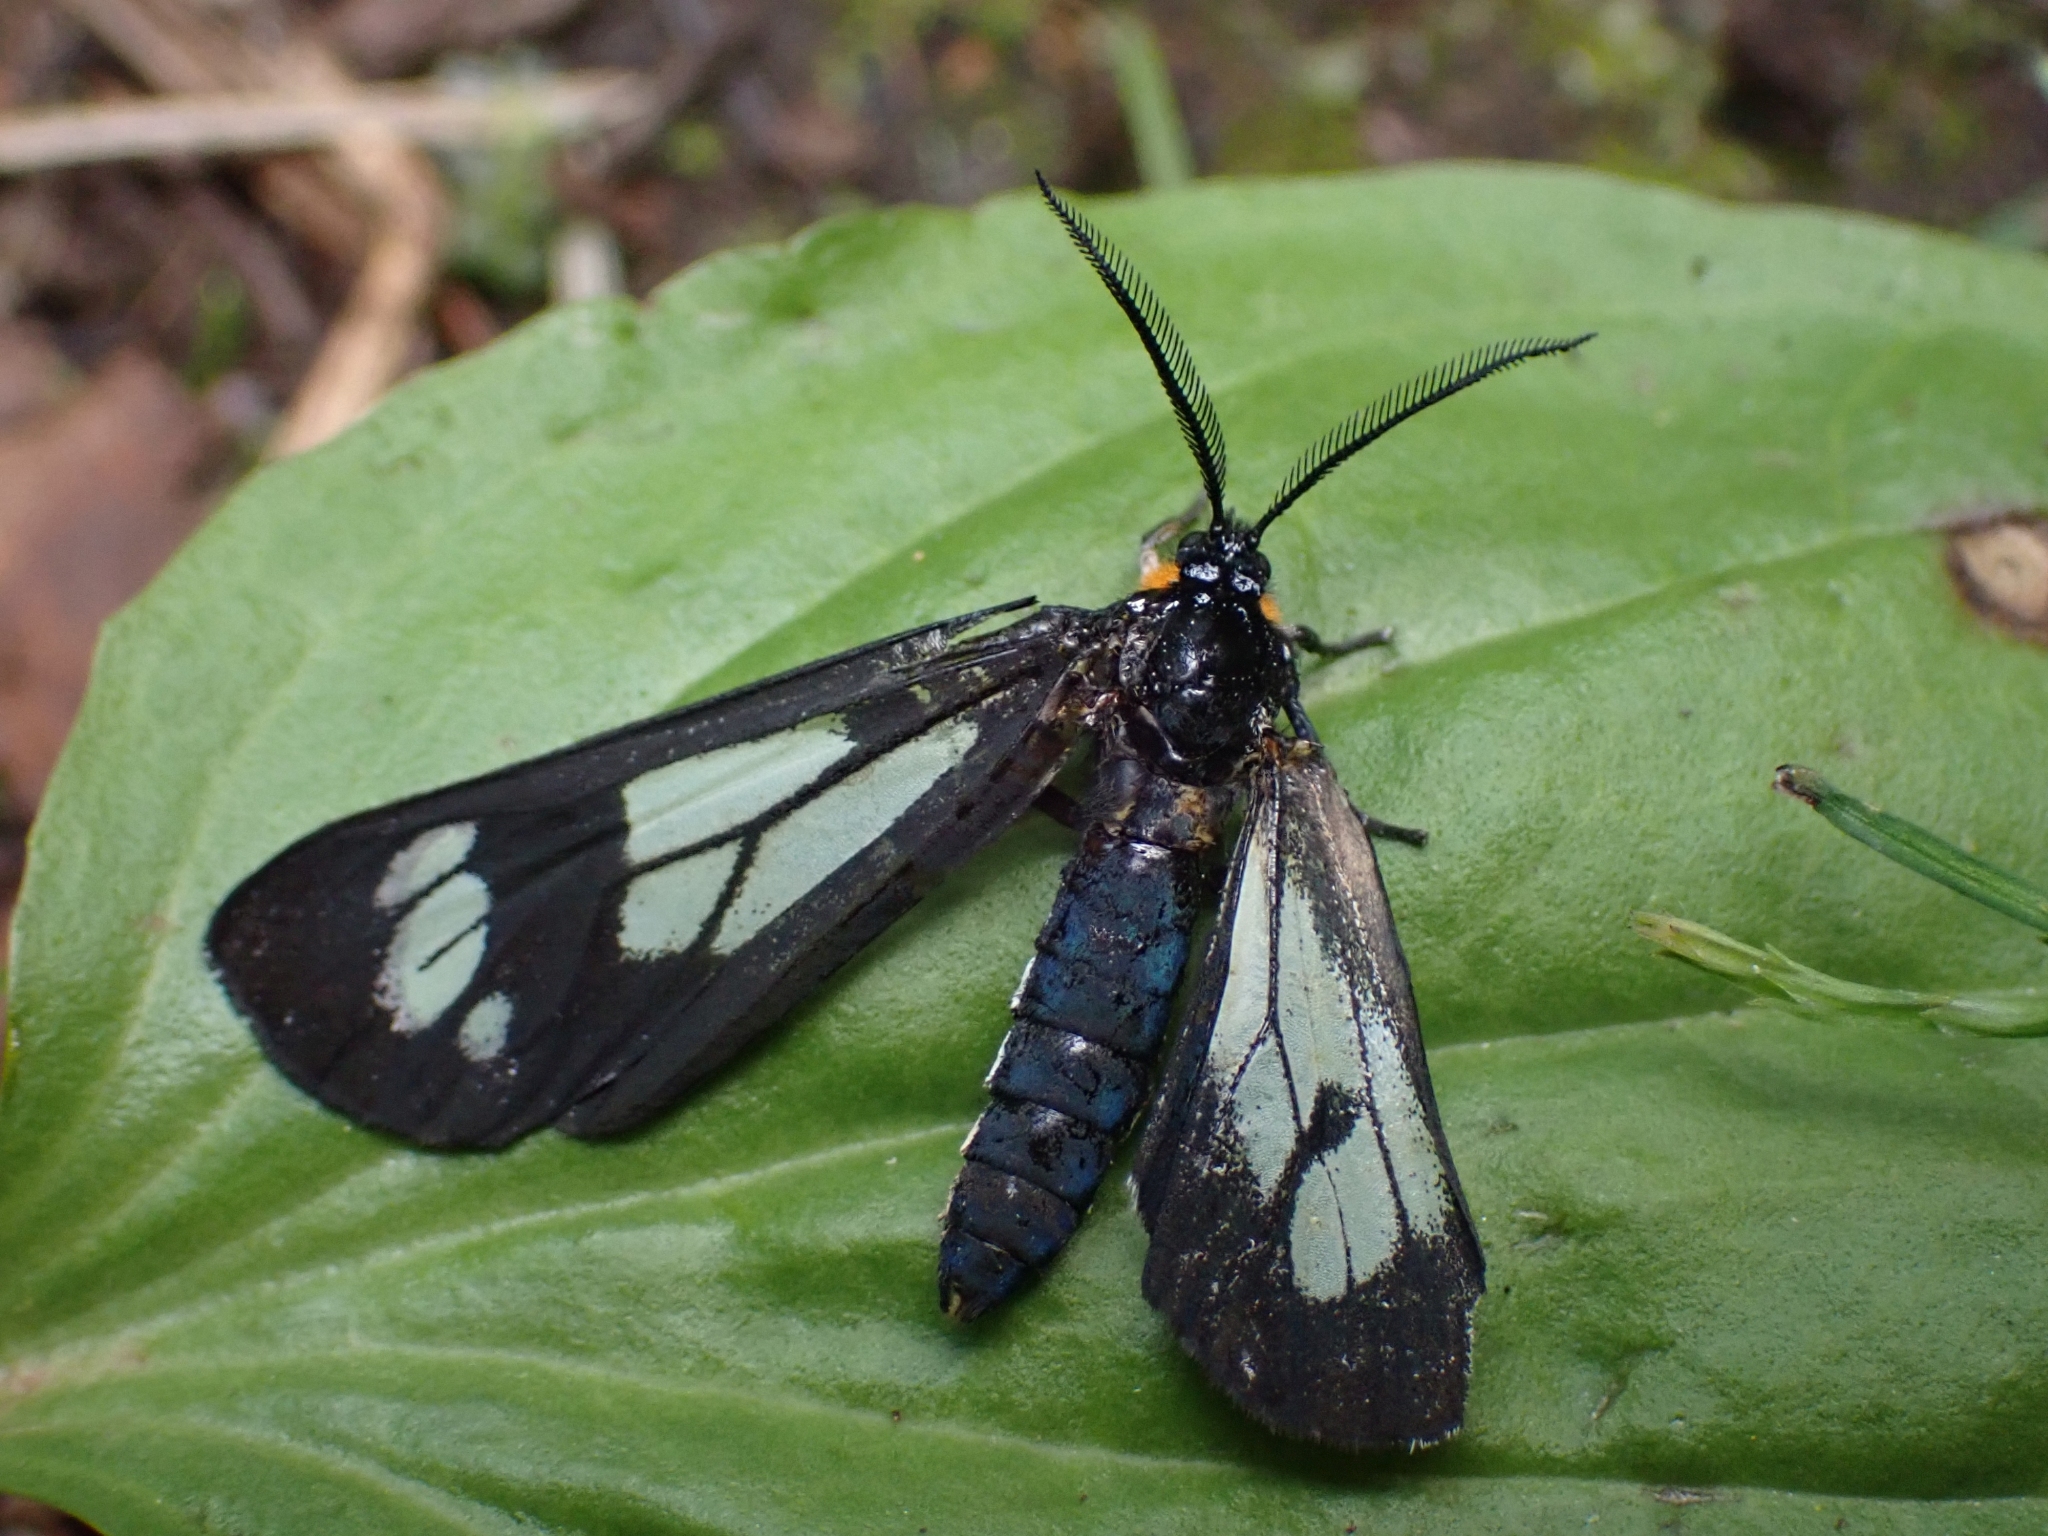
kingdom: Animalia
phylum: Arthropoda
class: Insecta
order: Lepidoptera
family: Erebidae
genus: Gnophaela
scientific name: Gnophaela vermiculata
